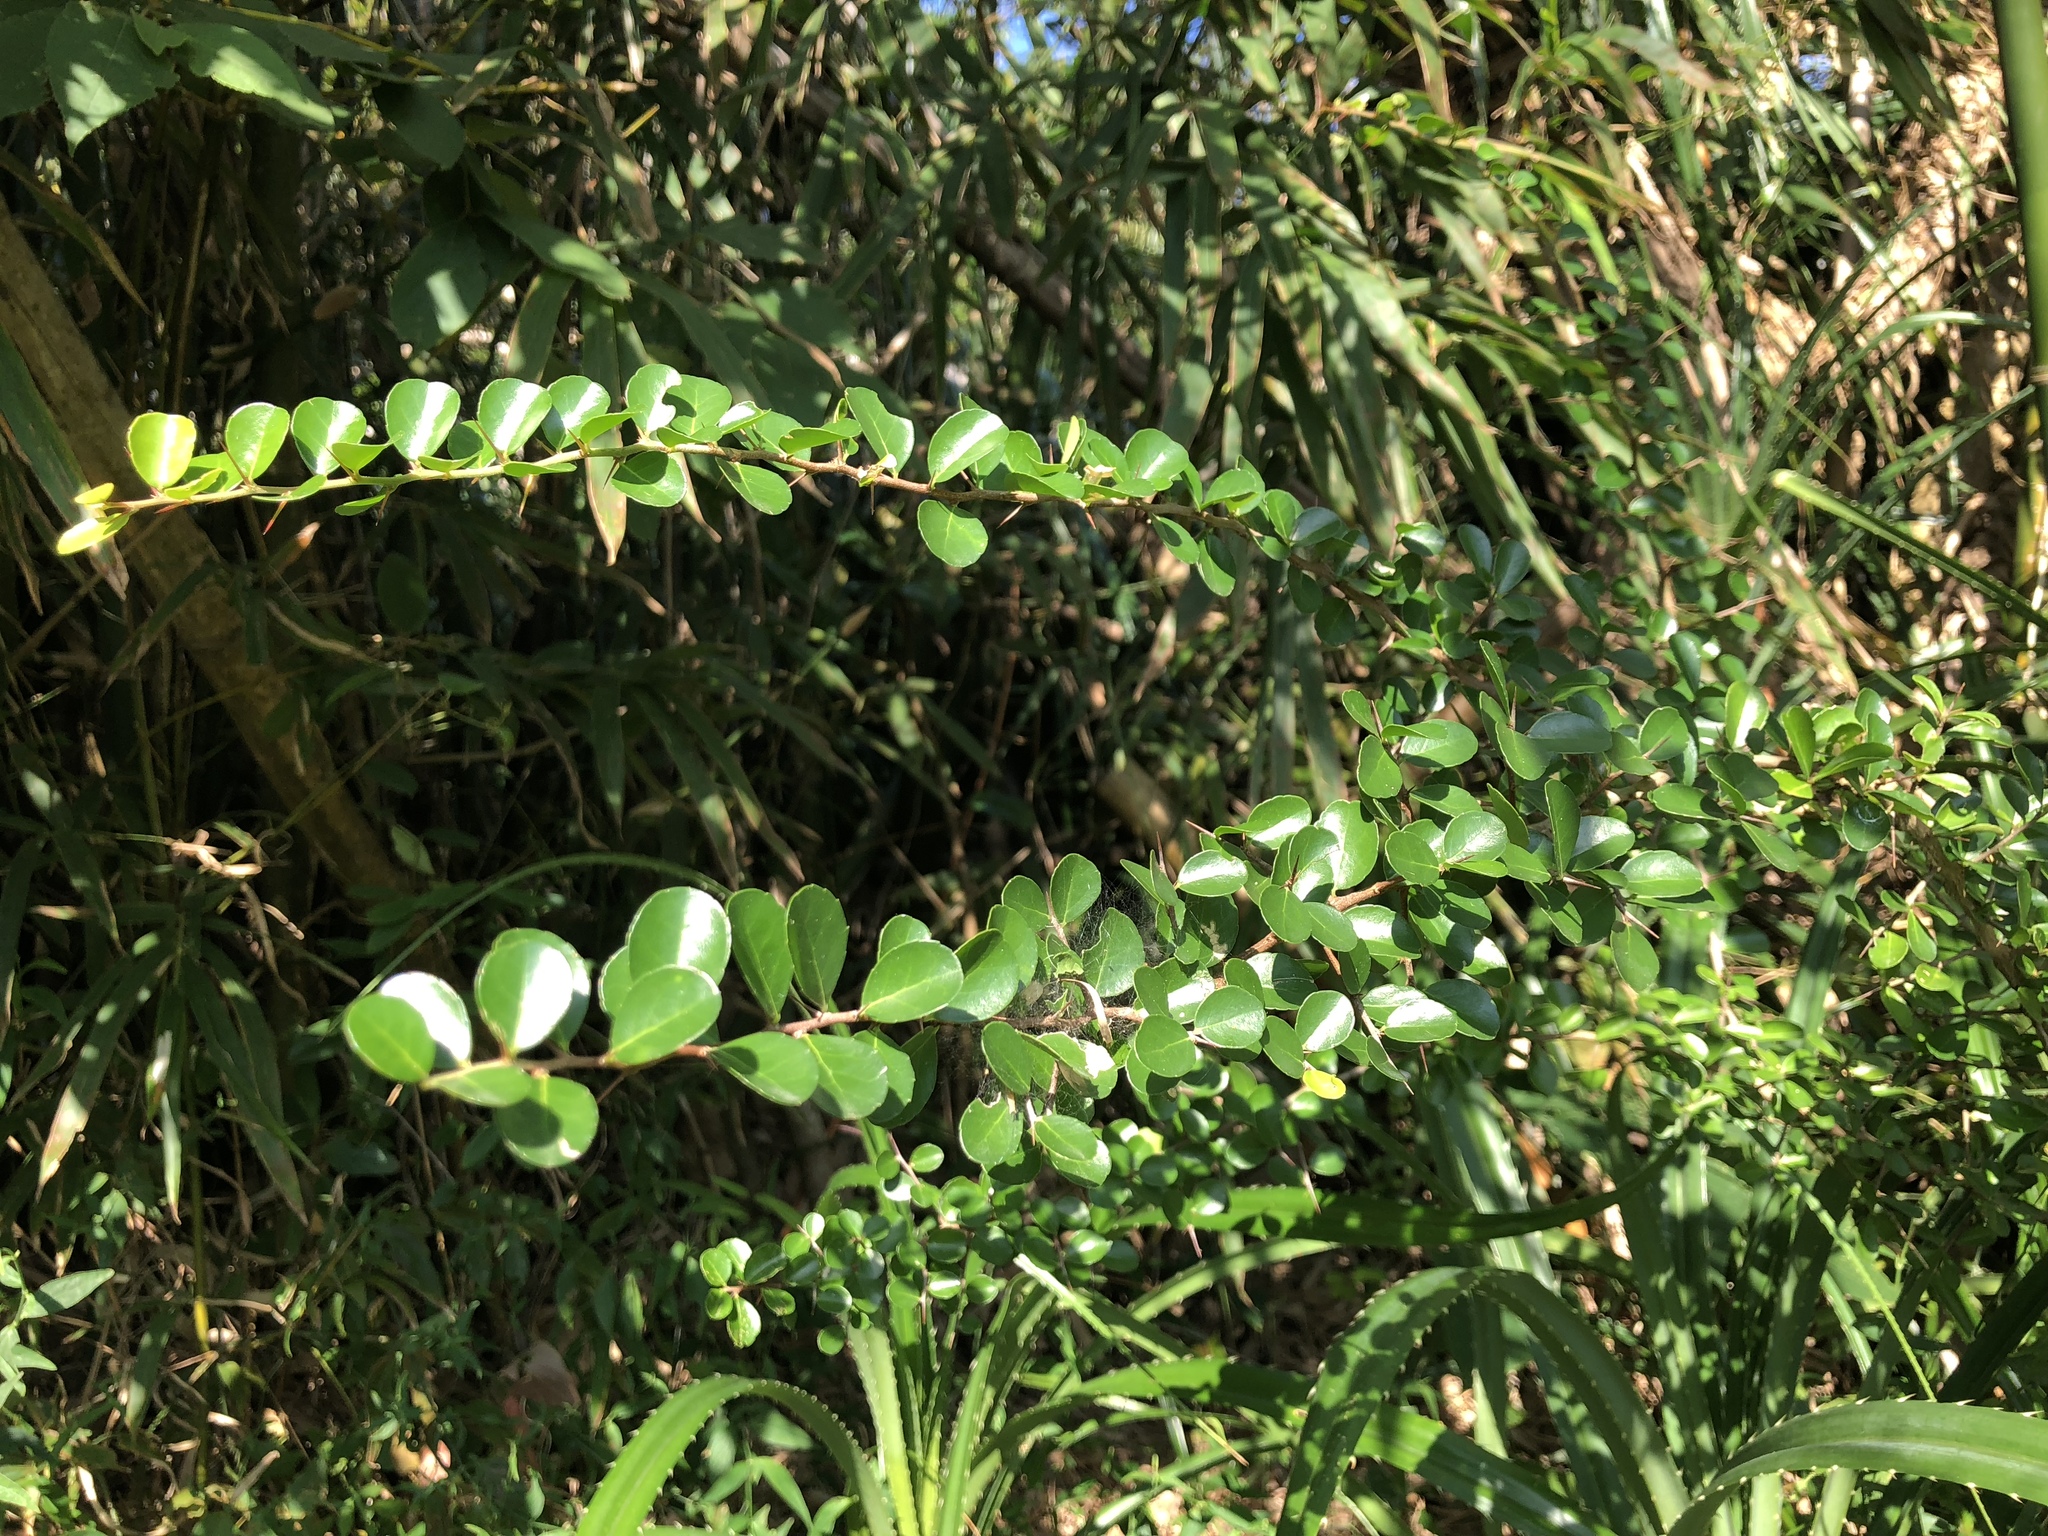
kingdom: Plantae
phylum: Tracheophyta
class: Magnoliopsida
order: Celastrales
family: Celastraceae
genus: Gymnosporia
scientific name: Gymnosporia diversifolia
